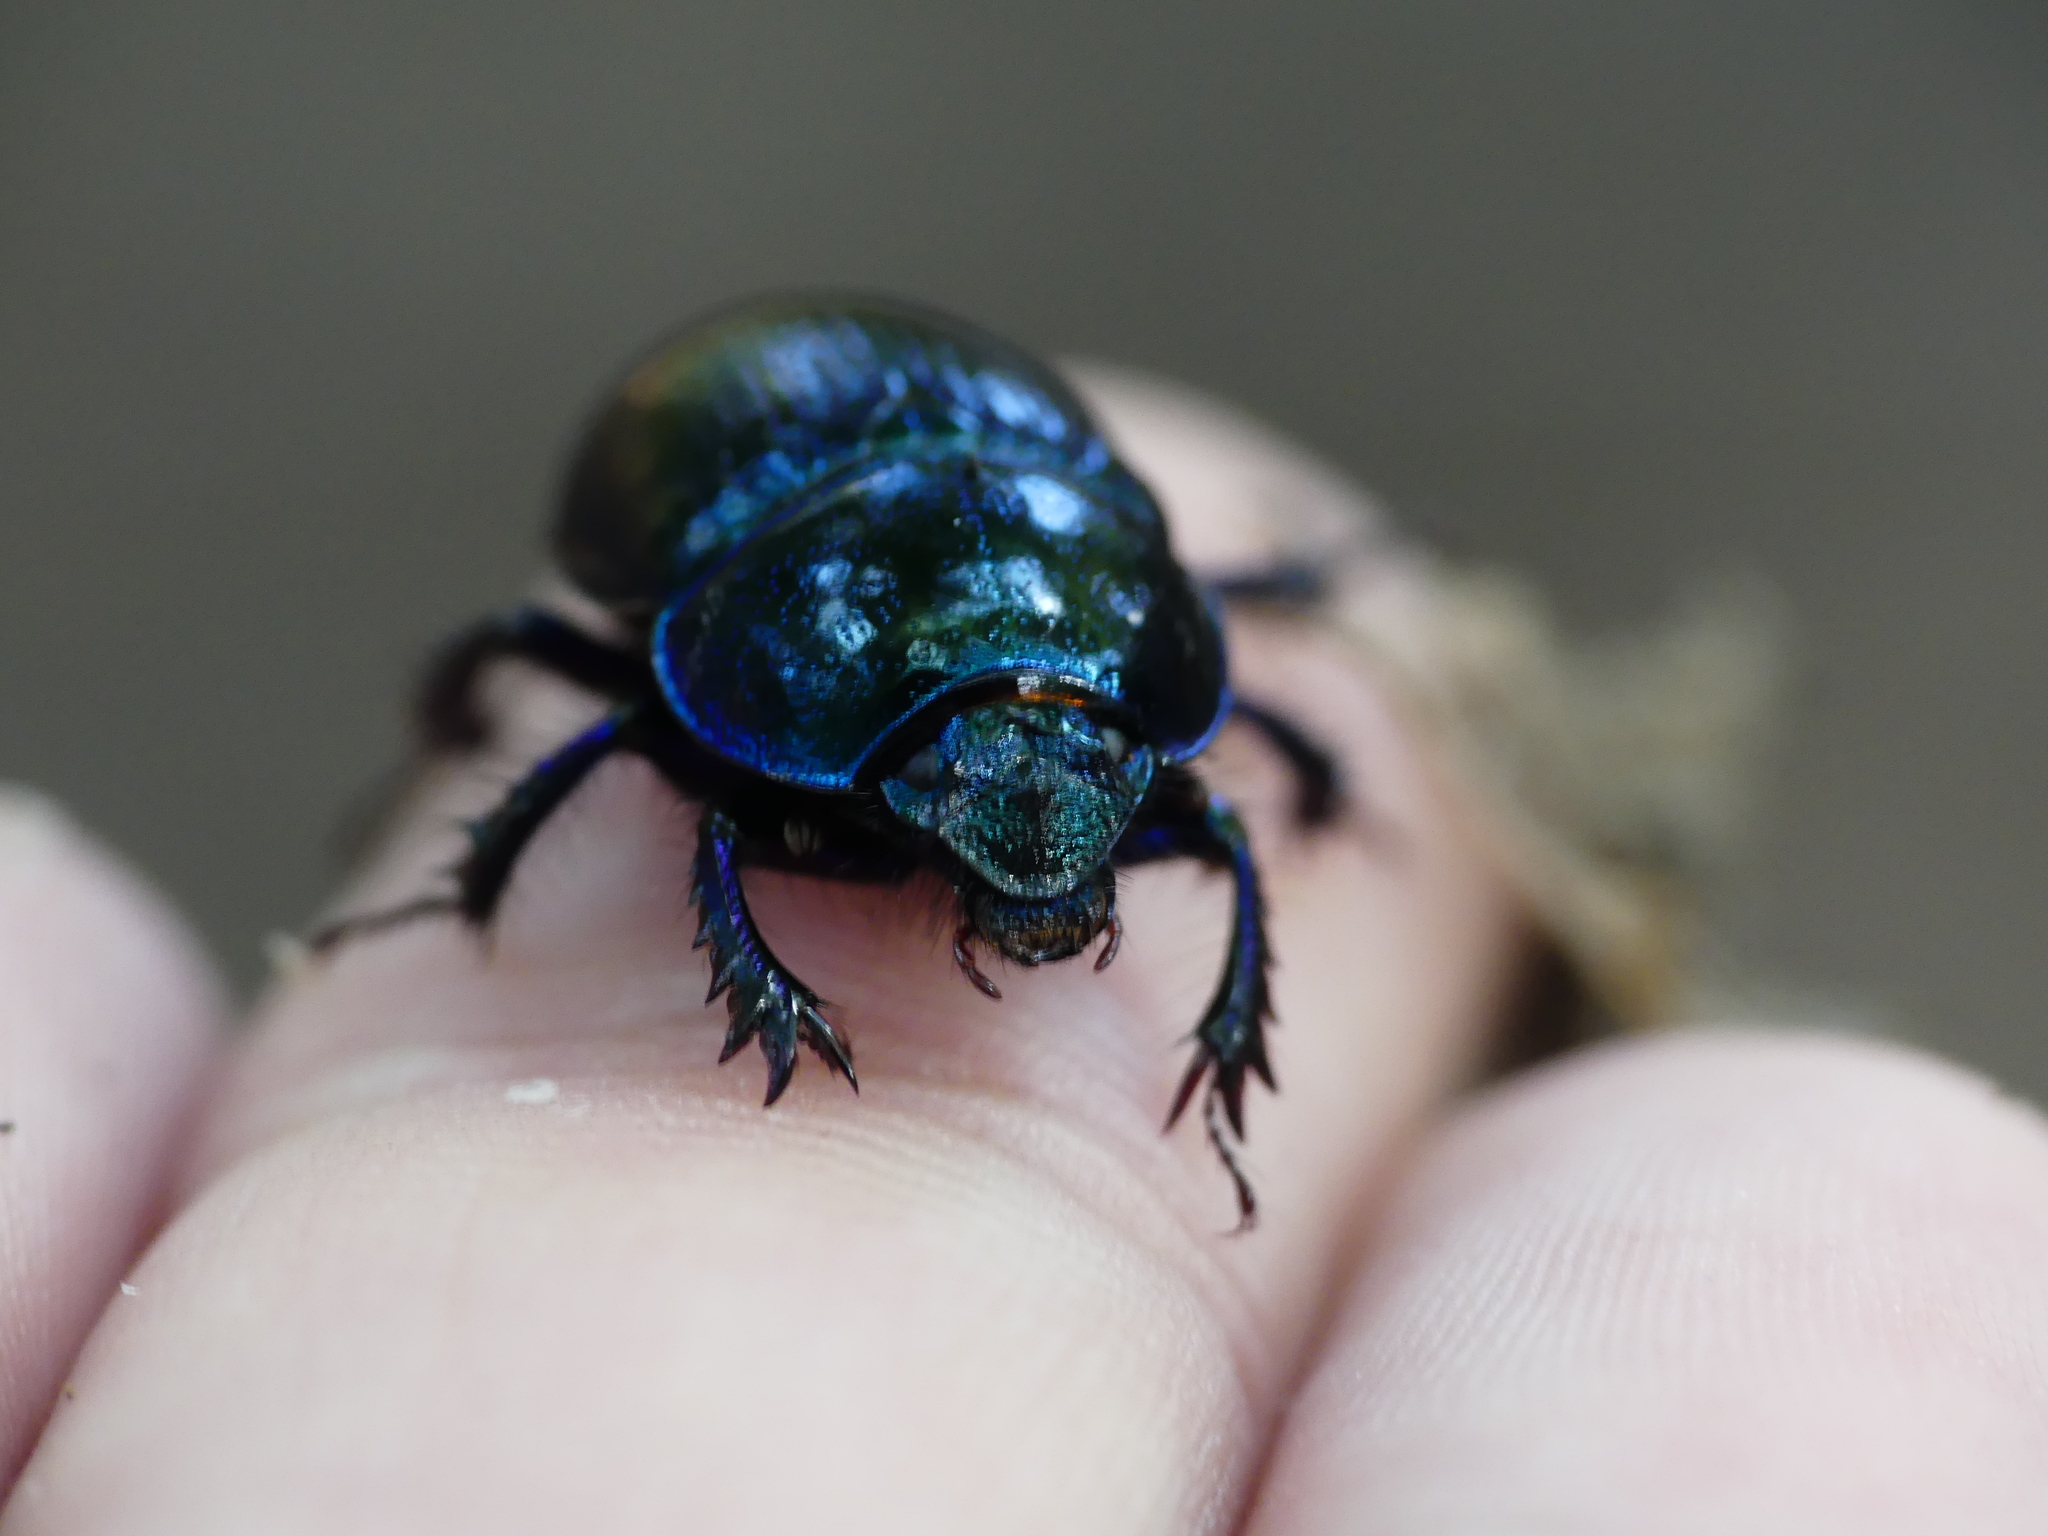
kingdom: Animalia
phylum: Arthropoda
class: Insecta
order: Coleoptera
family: Geotrupidae
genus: Anoplotrupes
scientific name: Anoplotrupes stercorosus
